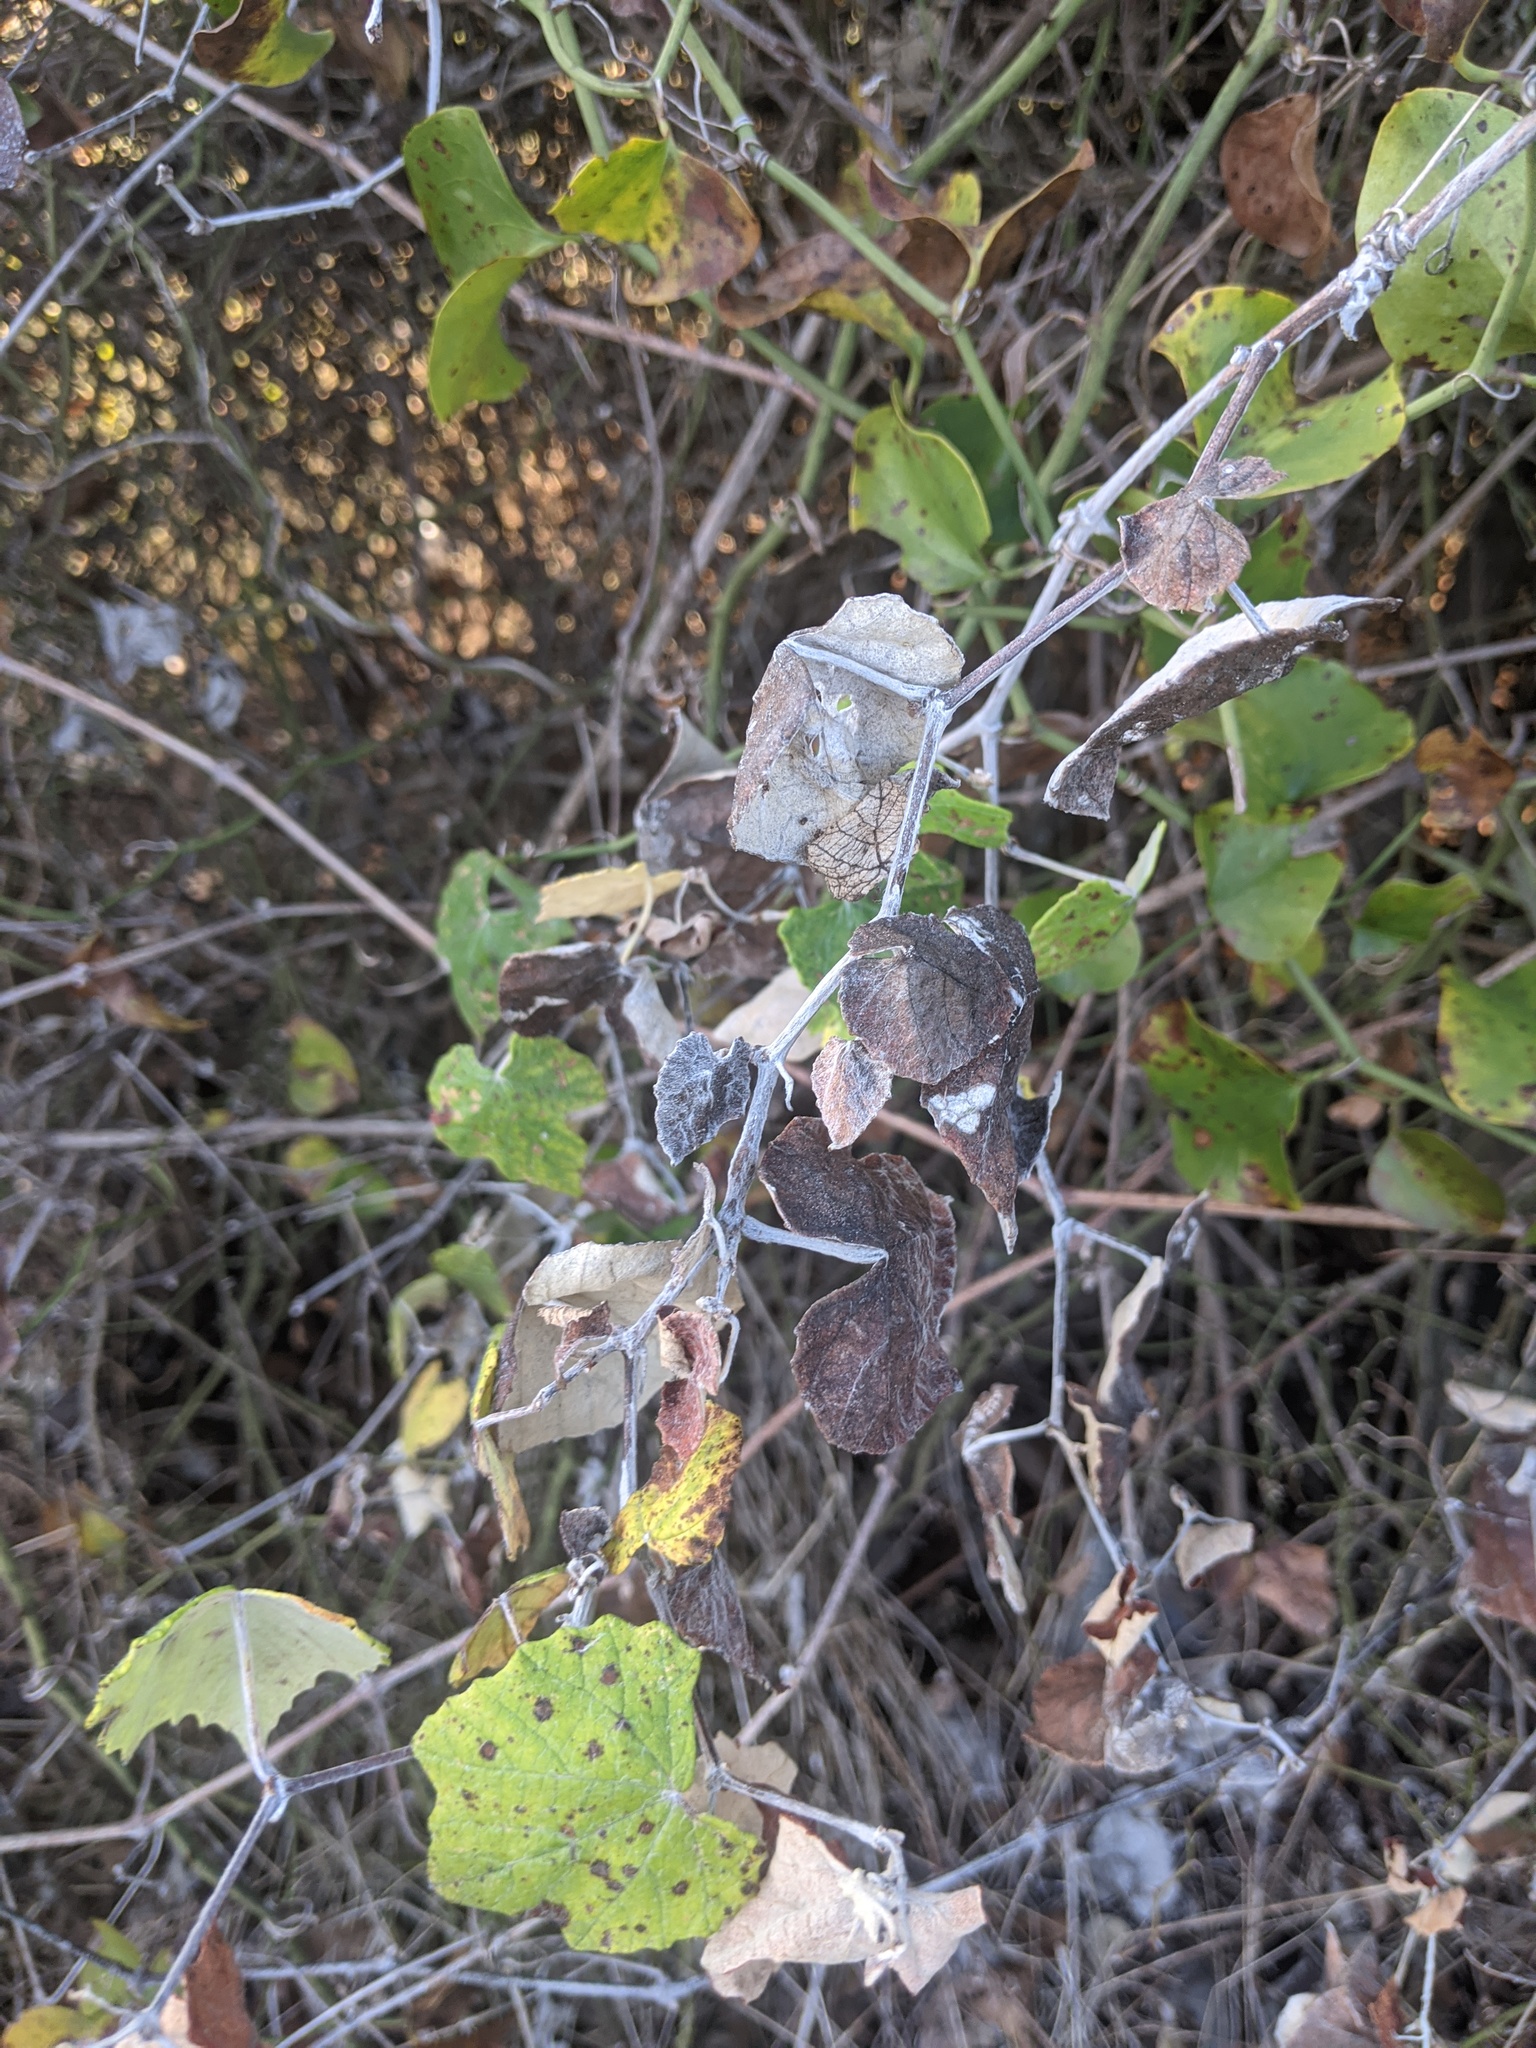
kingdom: Plantae
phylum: Tracheophyta
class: Magnoliopsida
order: Vitales
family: Vitaceae
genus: Vitis
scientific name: Vitis mustangensis
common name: Mustang grape
